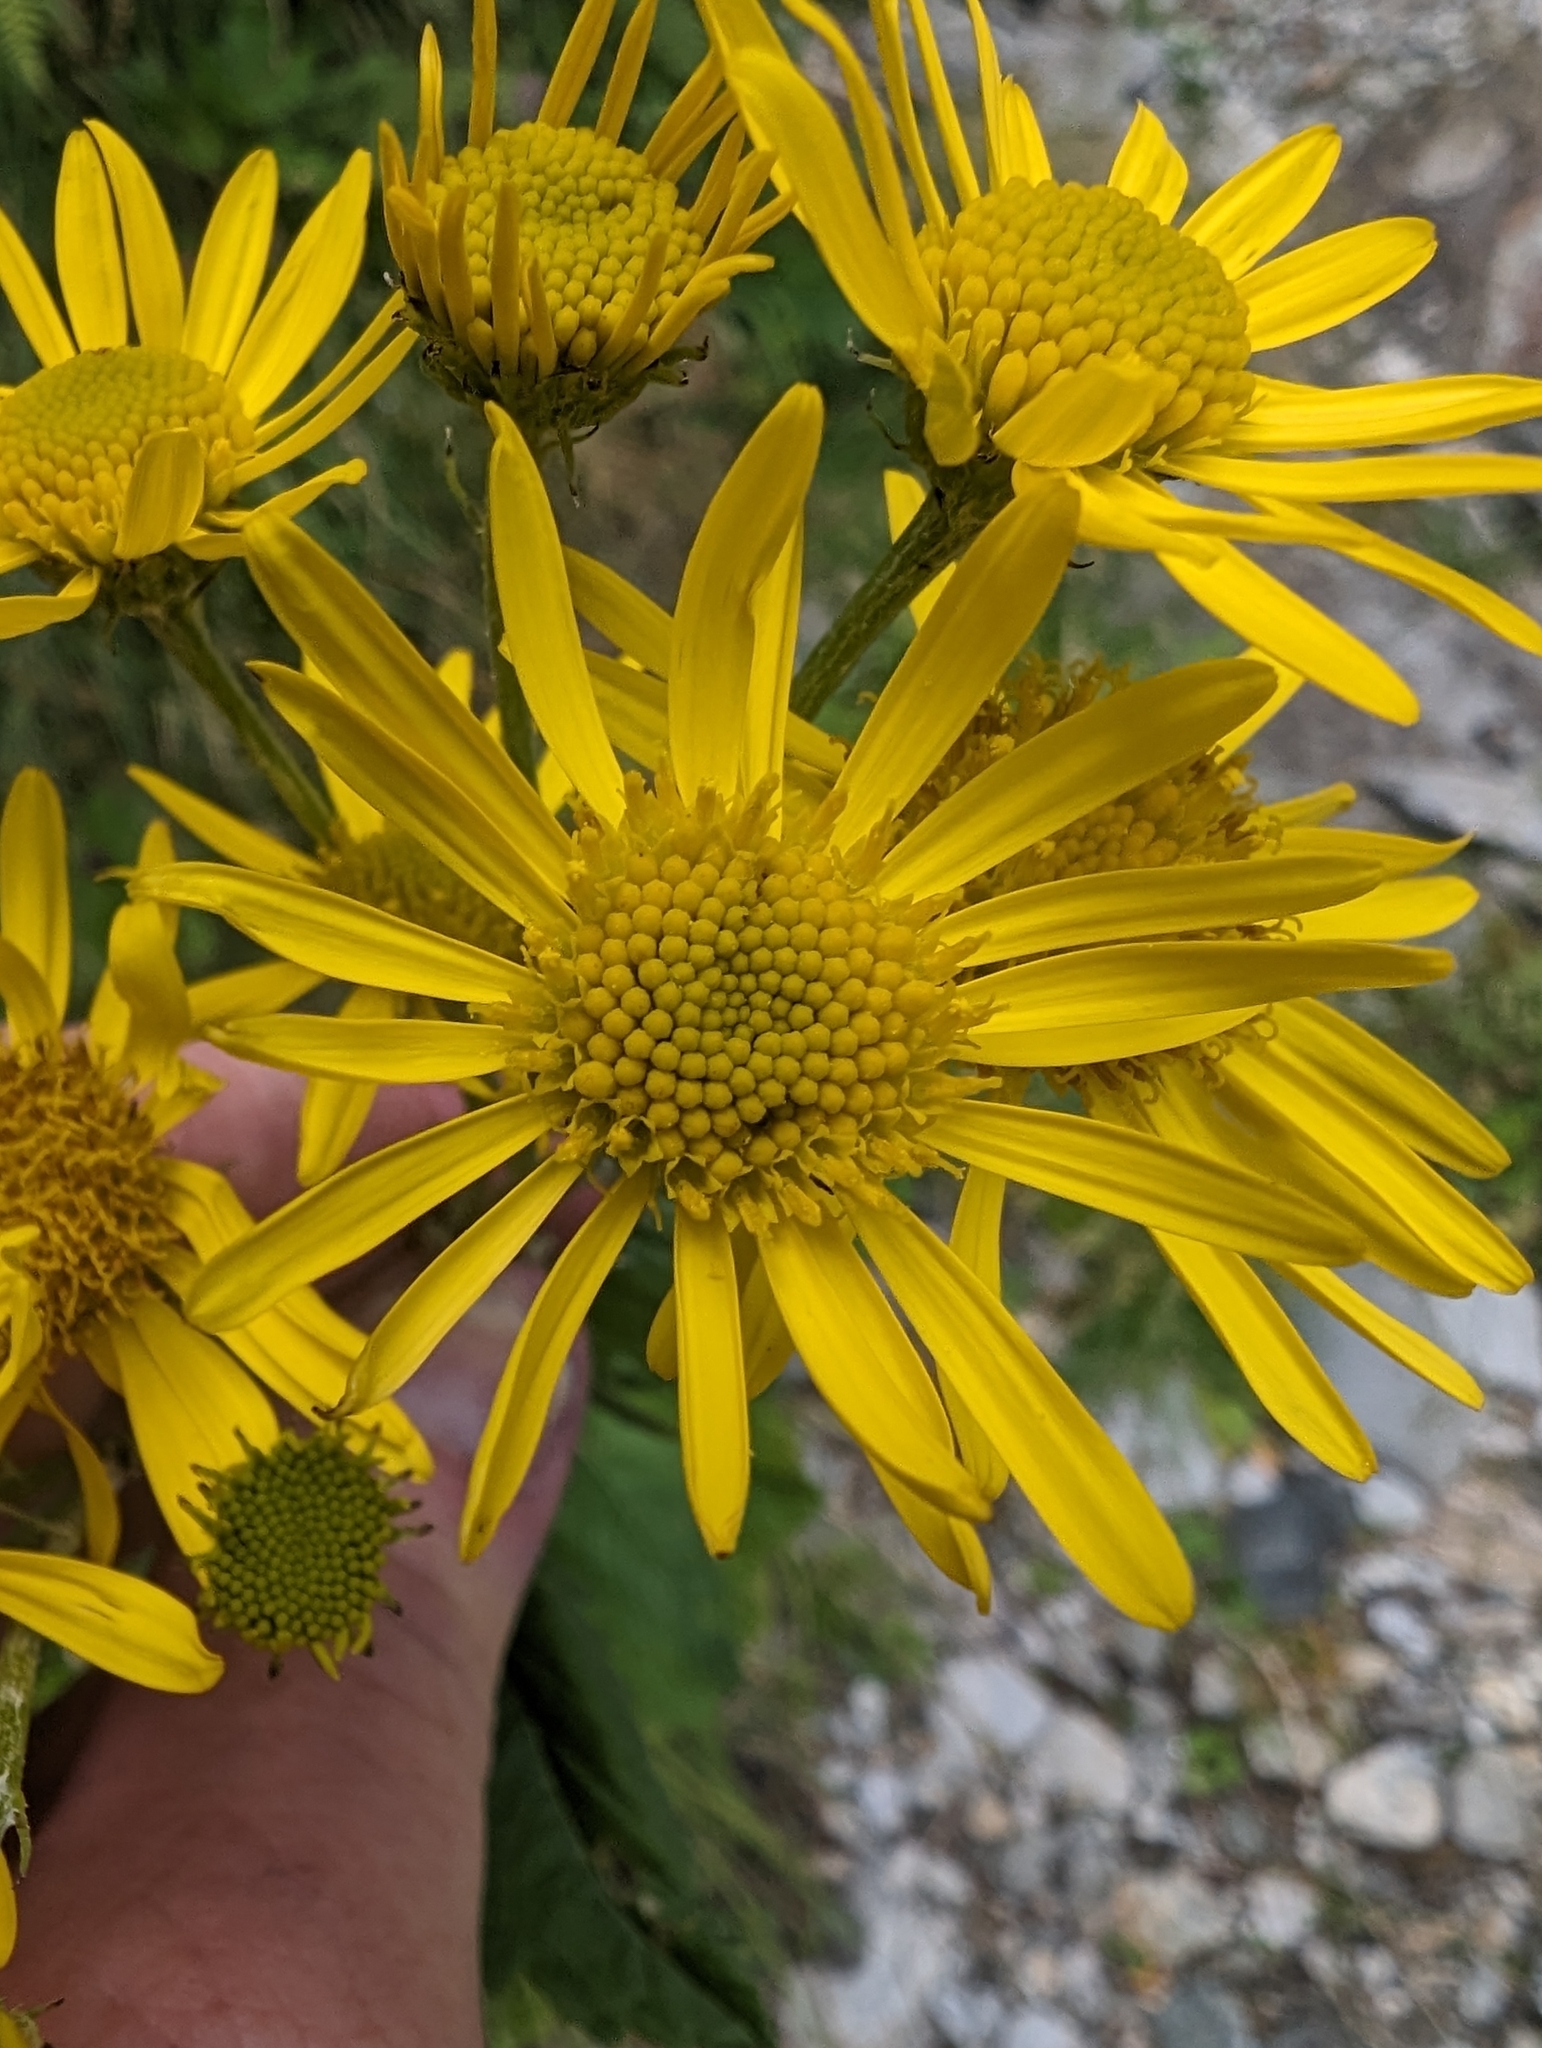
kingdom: Plantae
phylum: Tracheophyta
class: Magnoliopsida
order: Asterales
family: Asteraceae
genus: Jacobaea
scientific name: Jacobaea alpina
